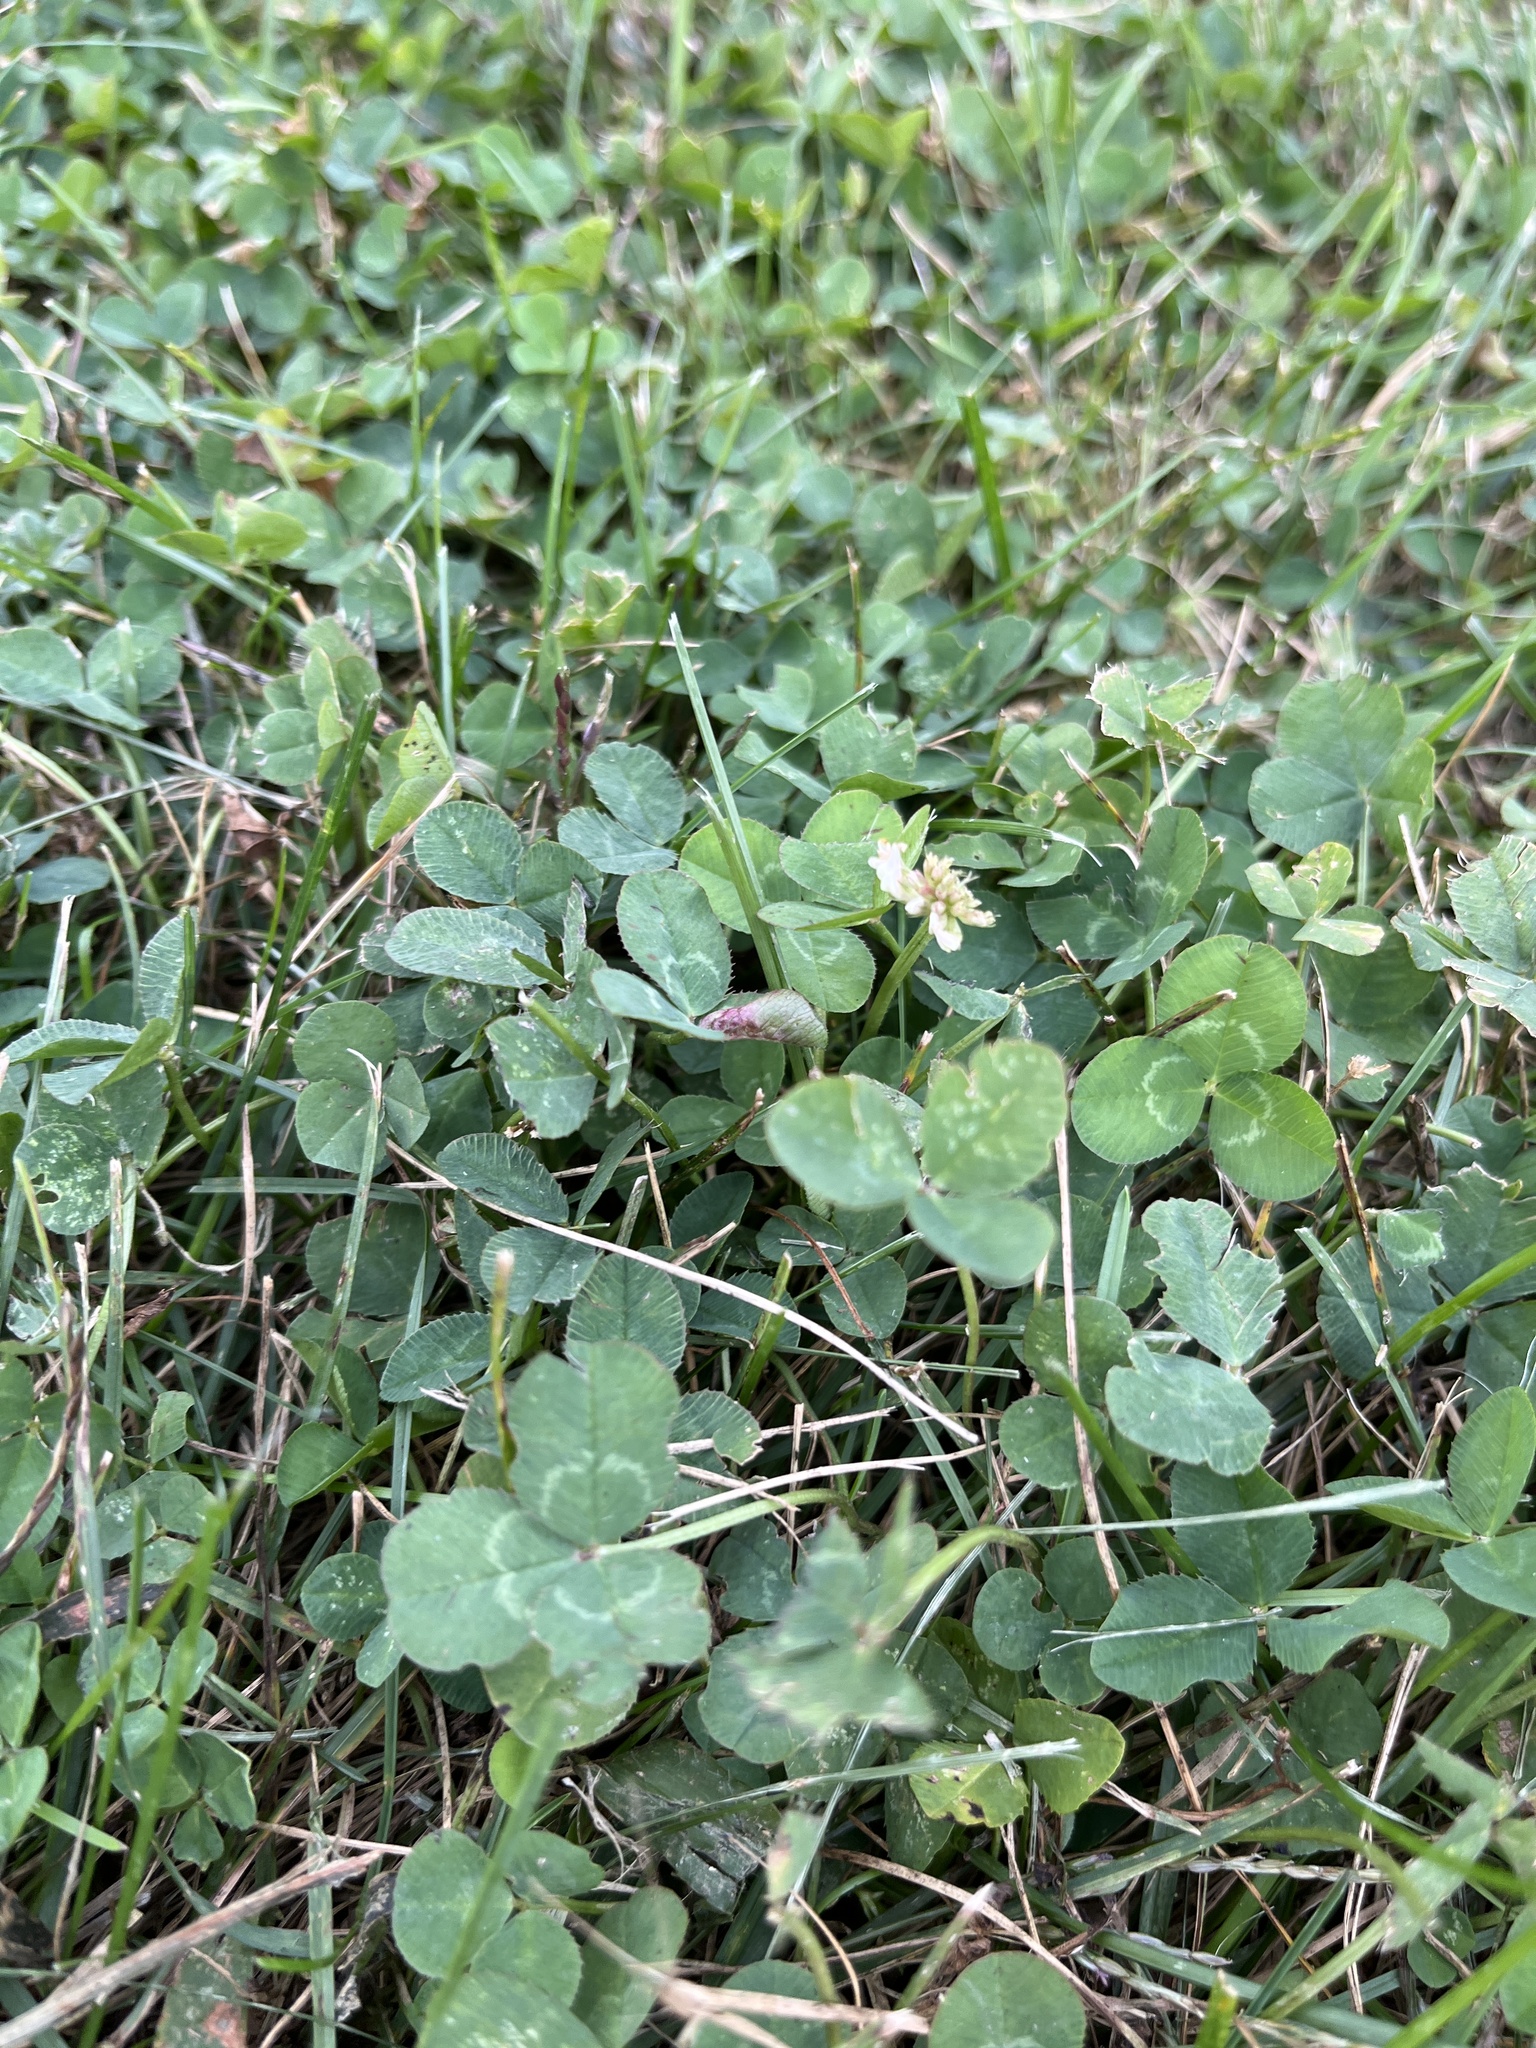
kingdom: Plantae
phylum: Tracheophyta
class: Magnoliopsida
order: Fabales
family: Fabaceae
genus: Trifolium
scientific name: Trifolium repens
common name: White clover
